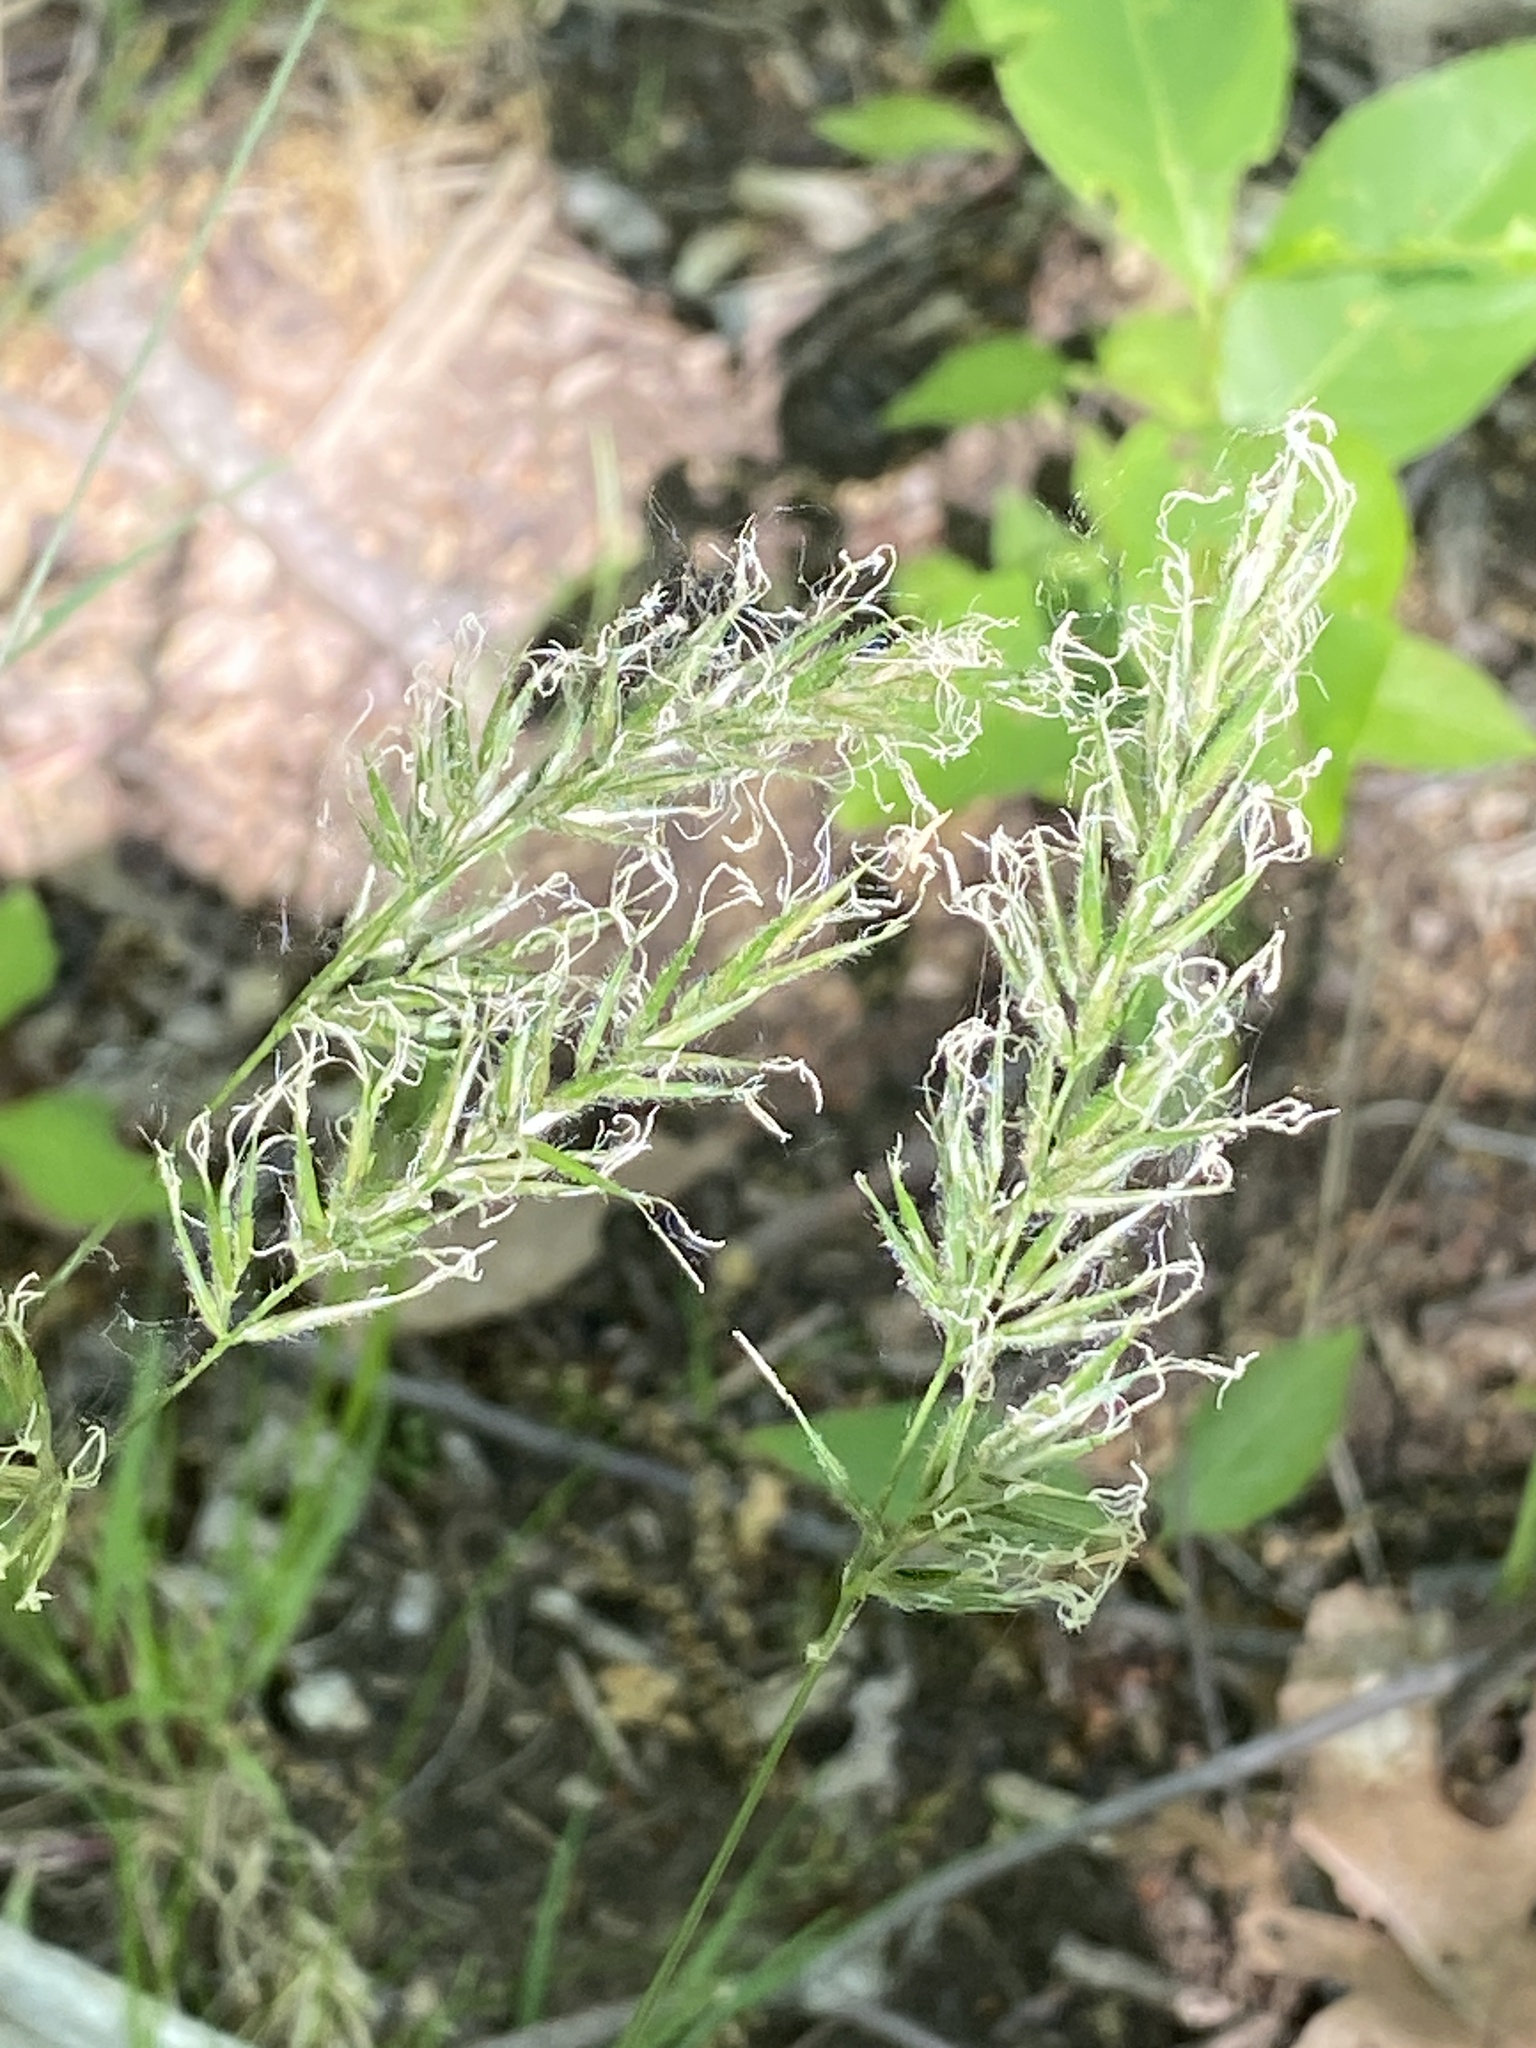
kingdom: Plantae
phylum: Tracheophyta
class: Liliopsida
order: Poales
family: Poaceae
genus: Anthoxanthum
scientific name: Anthoxanthum odoratum
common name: Sweet vernalgrass
